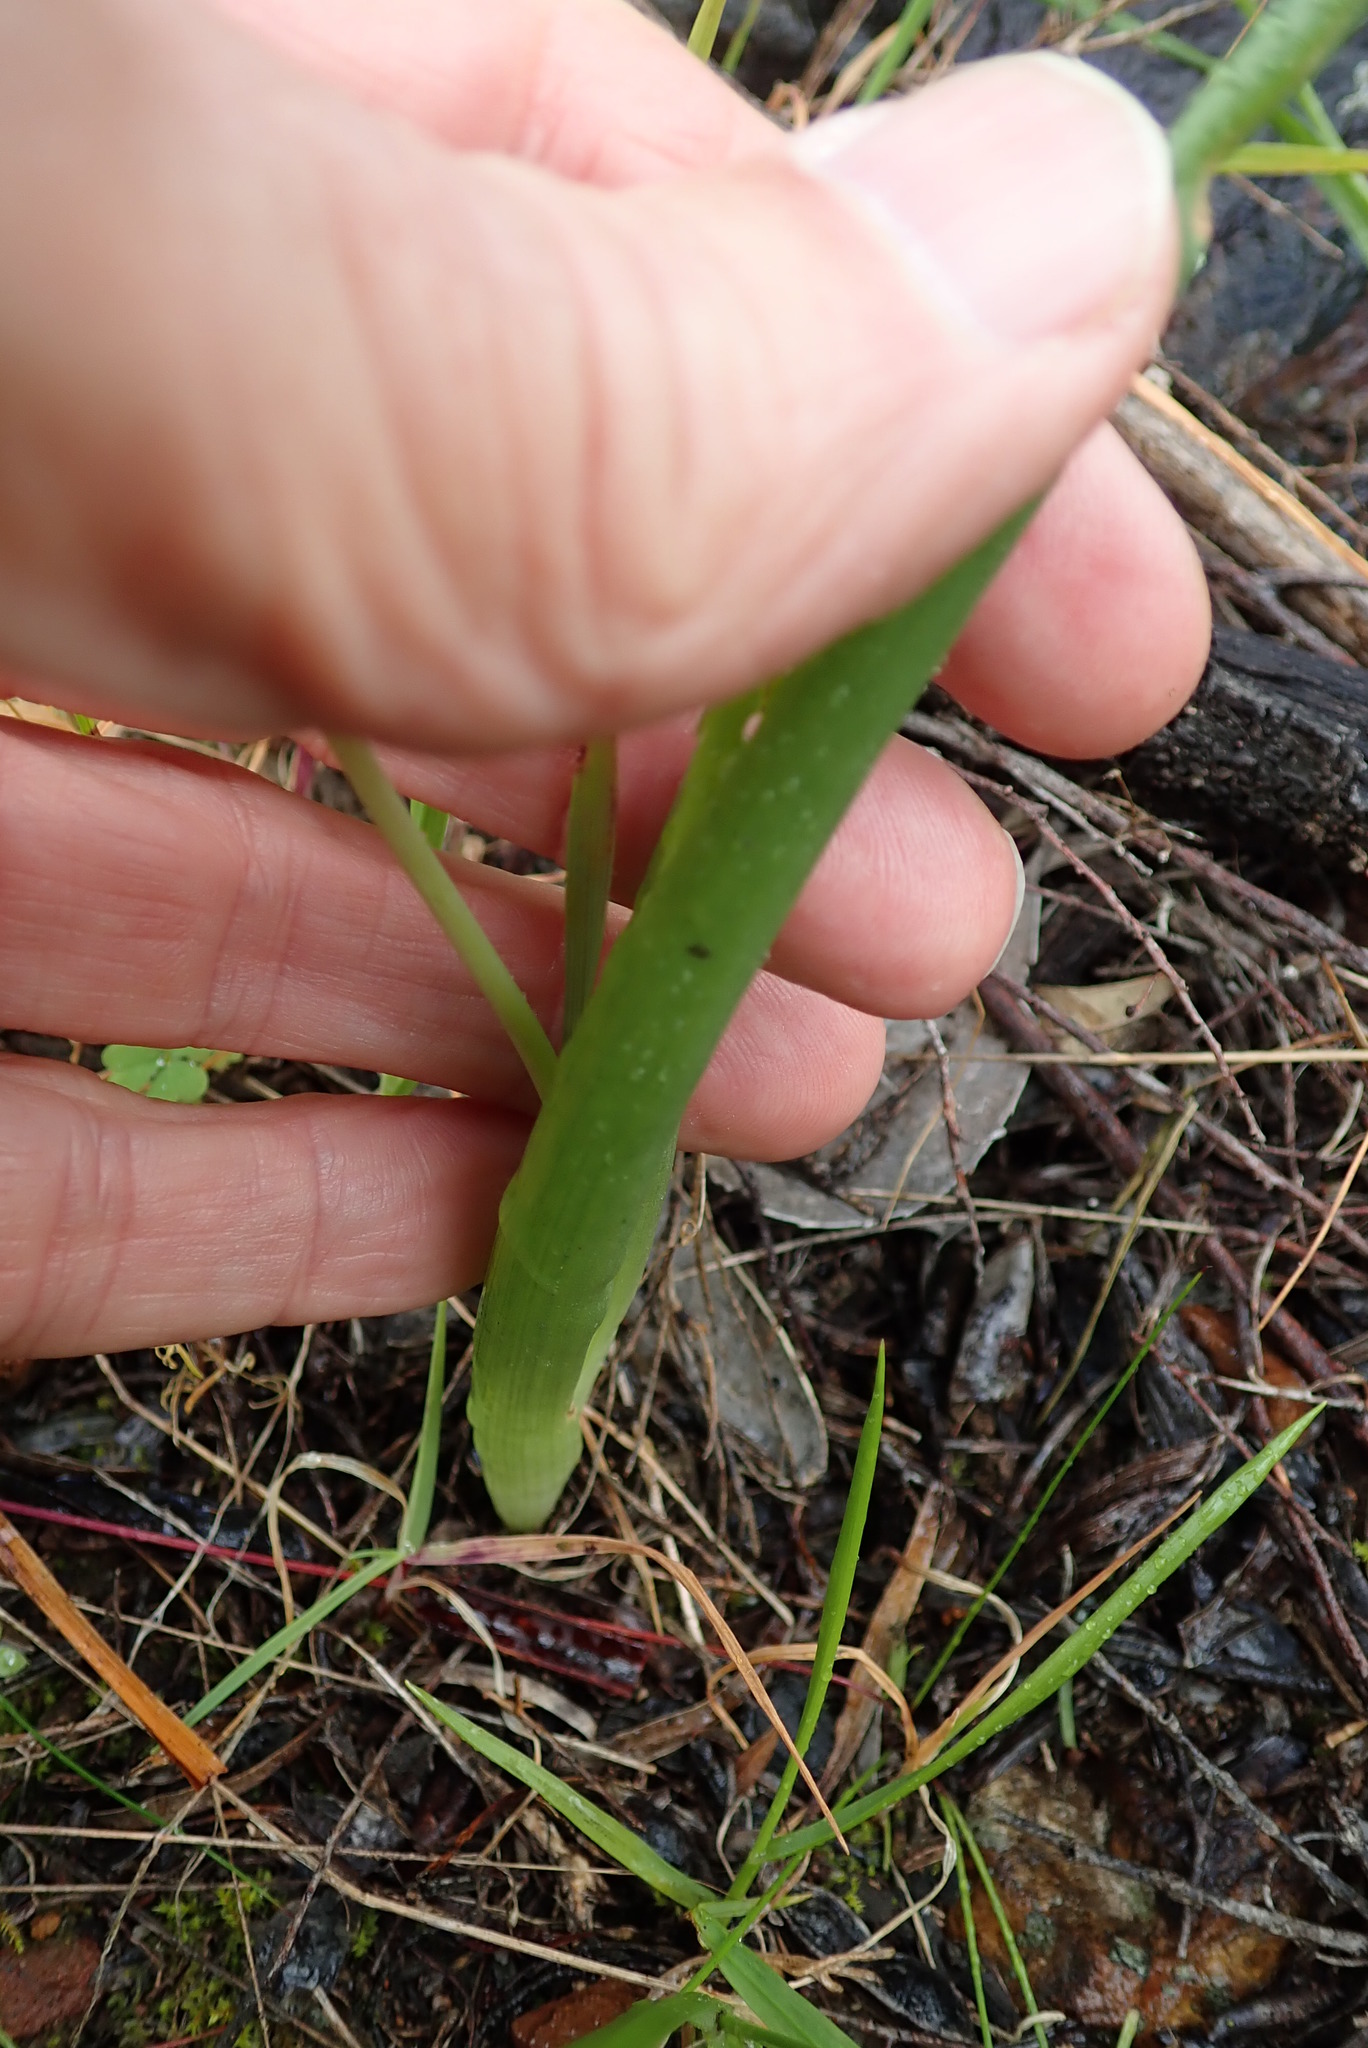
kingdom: Plantae
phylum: Tracheophyta
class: Liliopsida
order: Asparagales
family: Asphodelaceae
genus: Bulbine
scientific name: Bulbine praemorsa
